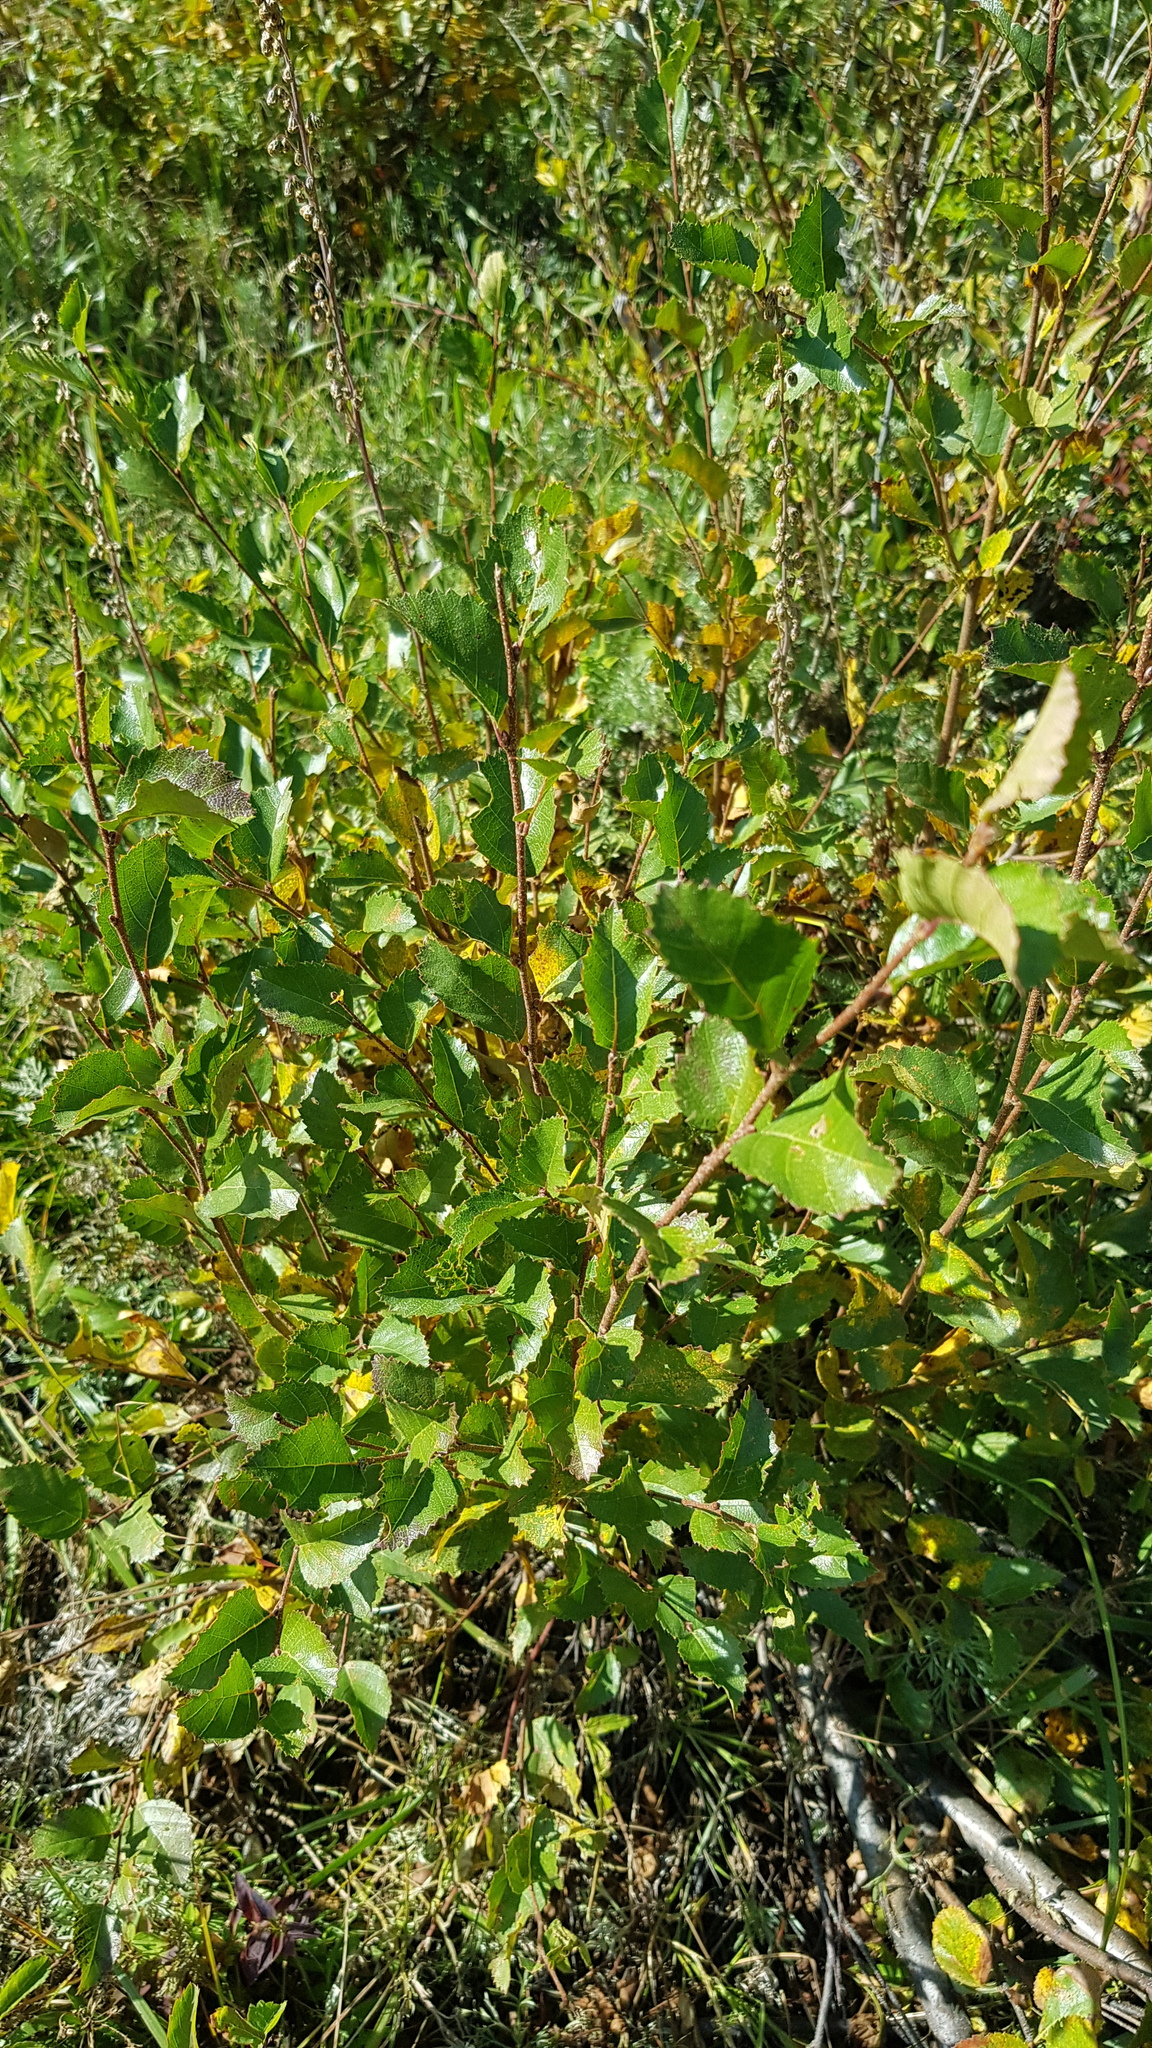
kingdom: Plantae
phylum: Tracheophyta
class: Magnoliopsida
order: Fagales
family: Betulaceae
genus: Betula
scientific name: Betula fruticosa
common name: Japanese bog birch
